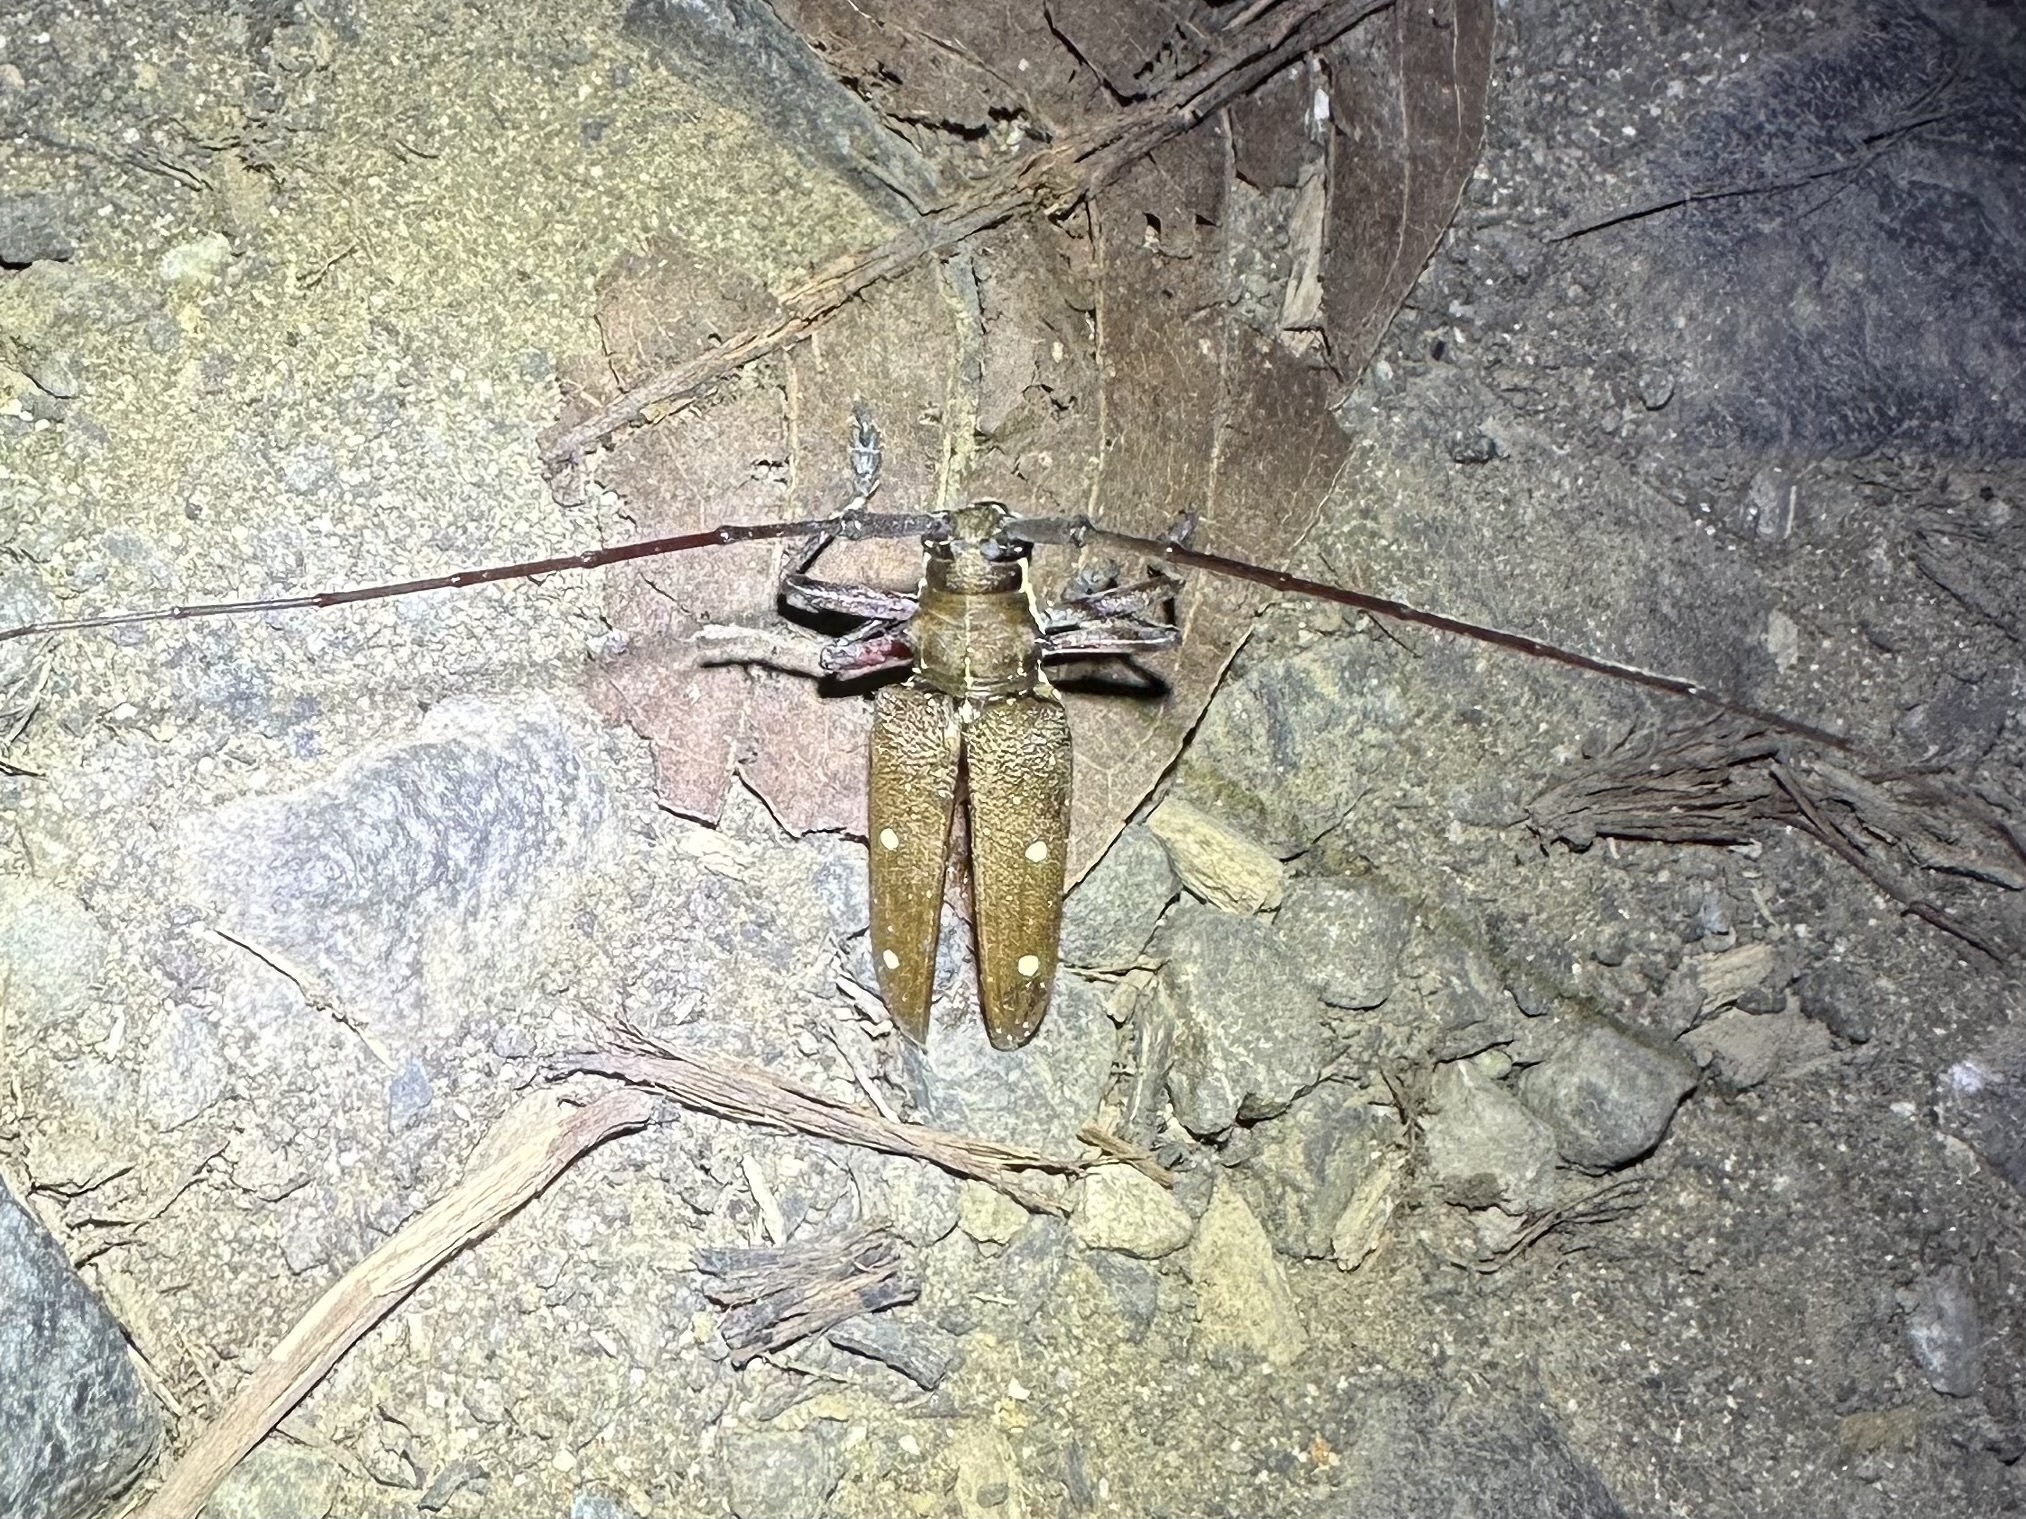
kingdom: Animalia
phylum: Arthropoda
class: Insecta
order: Coleoptera
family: Cerambycidae
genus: Taeniotes
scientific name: Taeniotes xanthostictus
